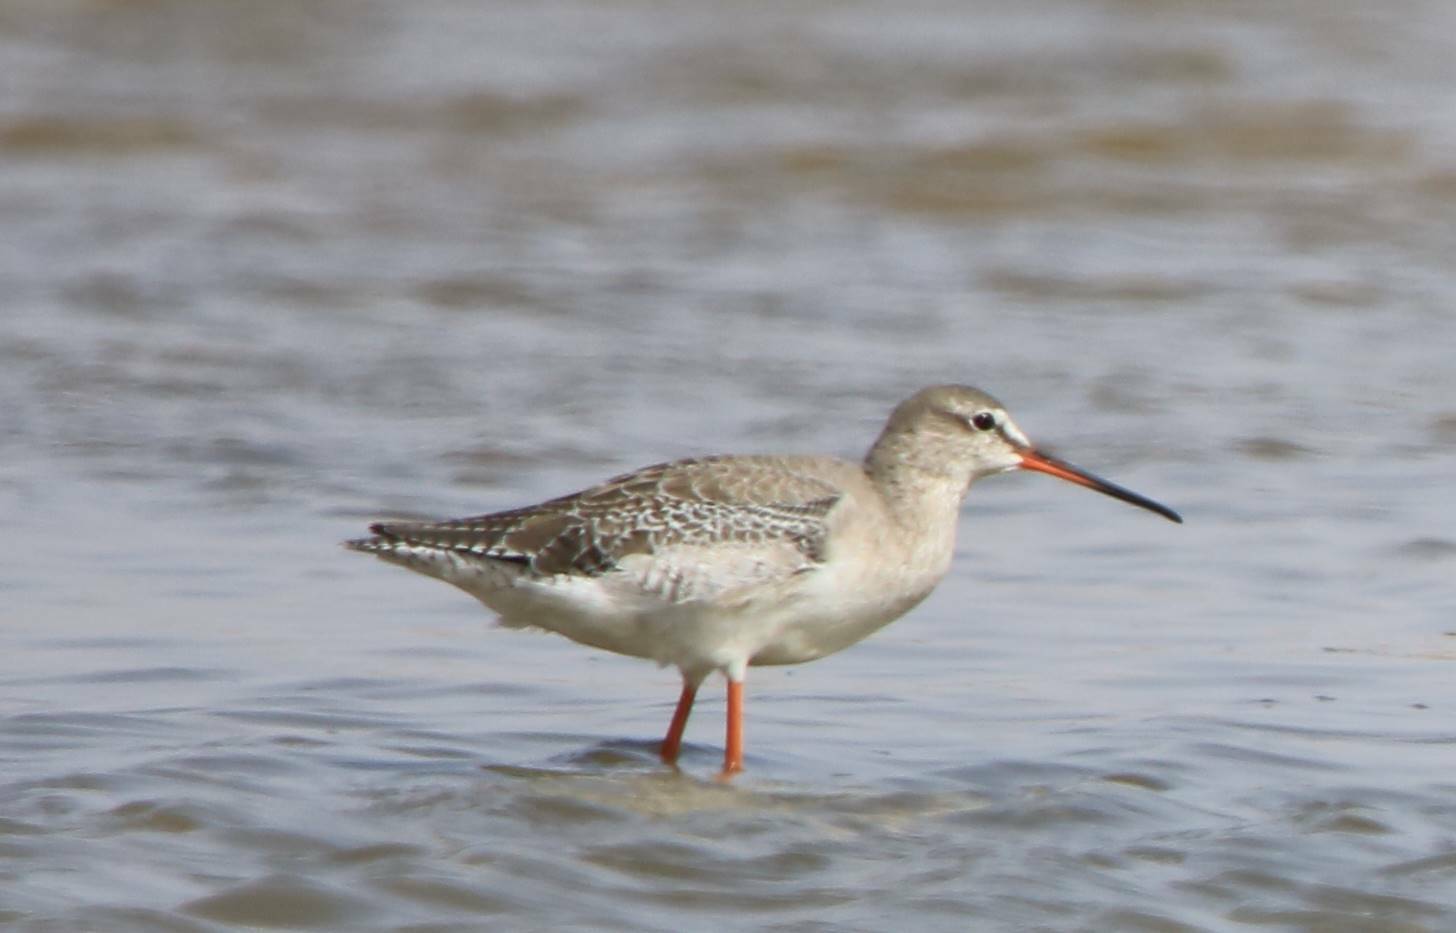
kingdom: Animalia
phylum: Chordata
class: Aves
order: Charadriiformes
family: Scolopacidae
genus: Tringa
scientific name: Tringa erythropus
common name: Spotted redshank
